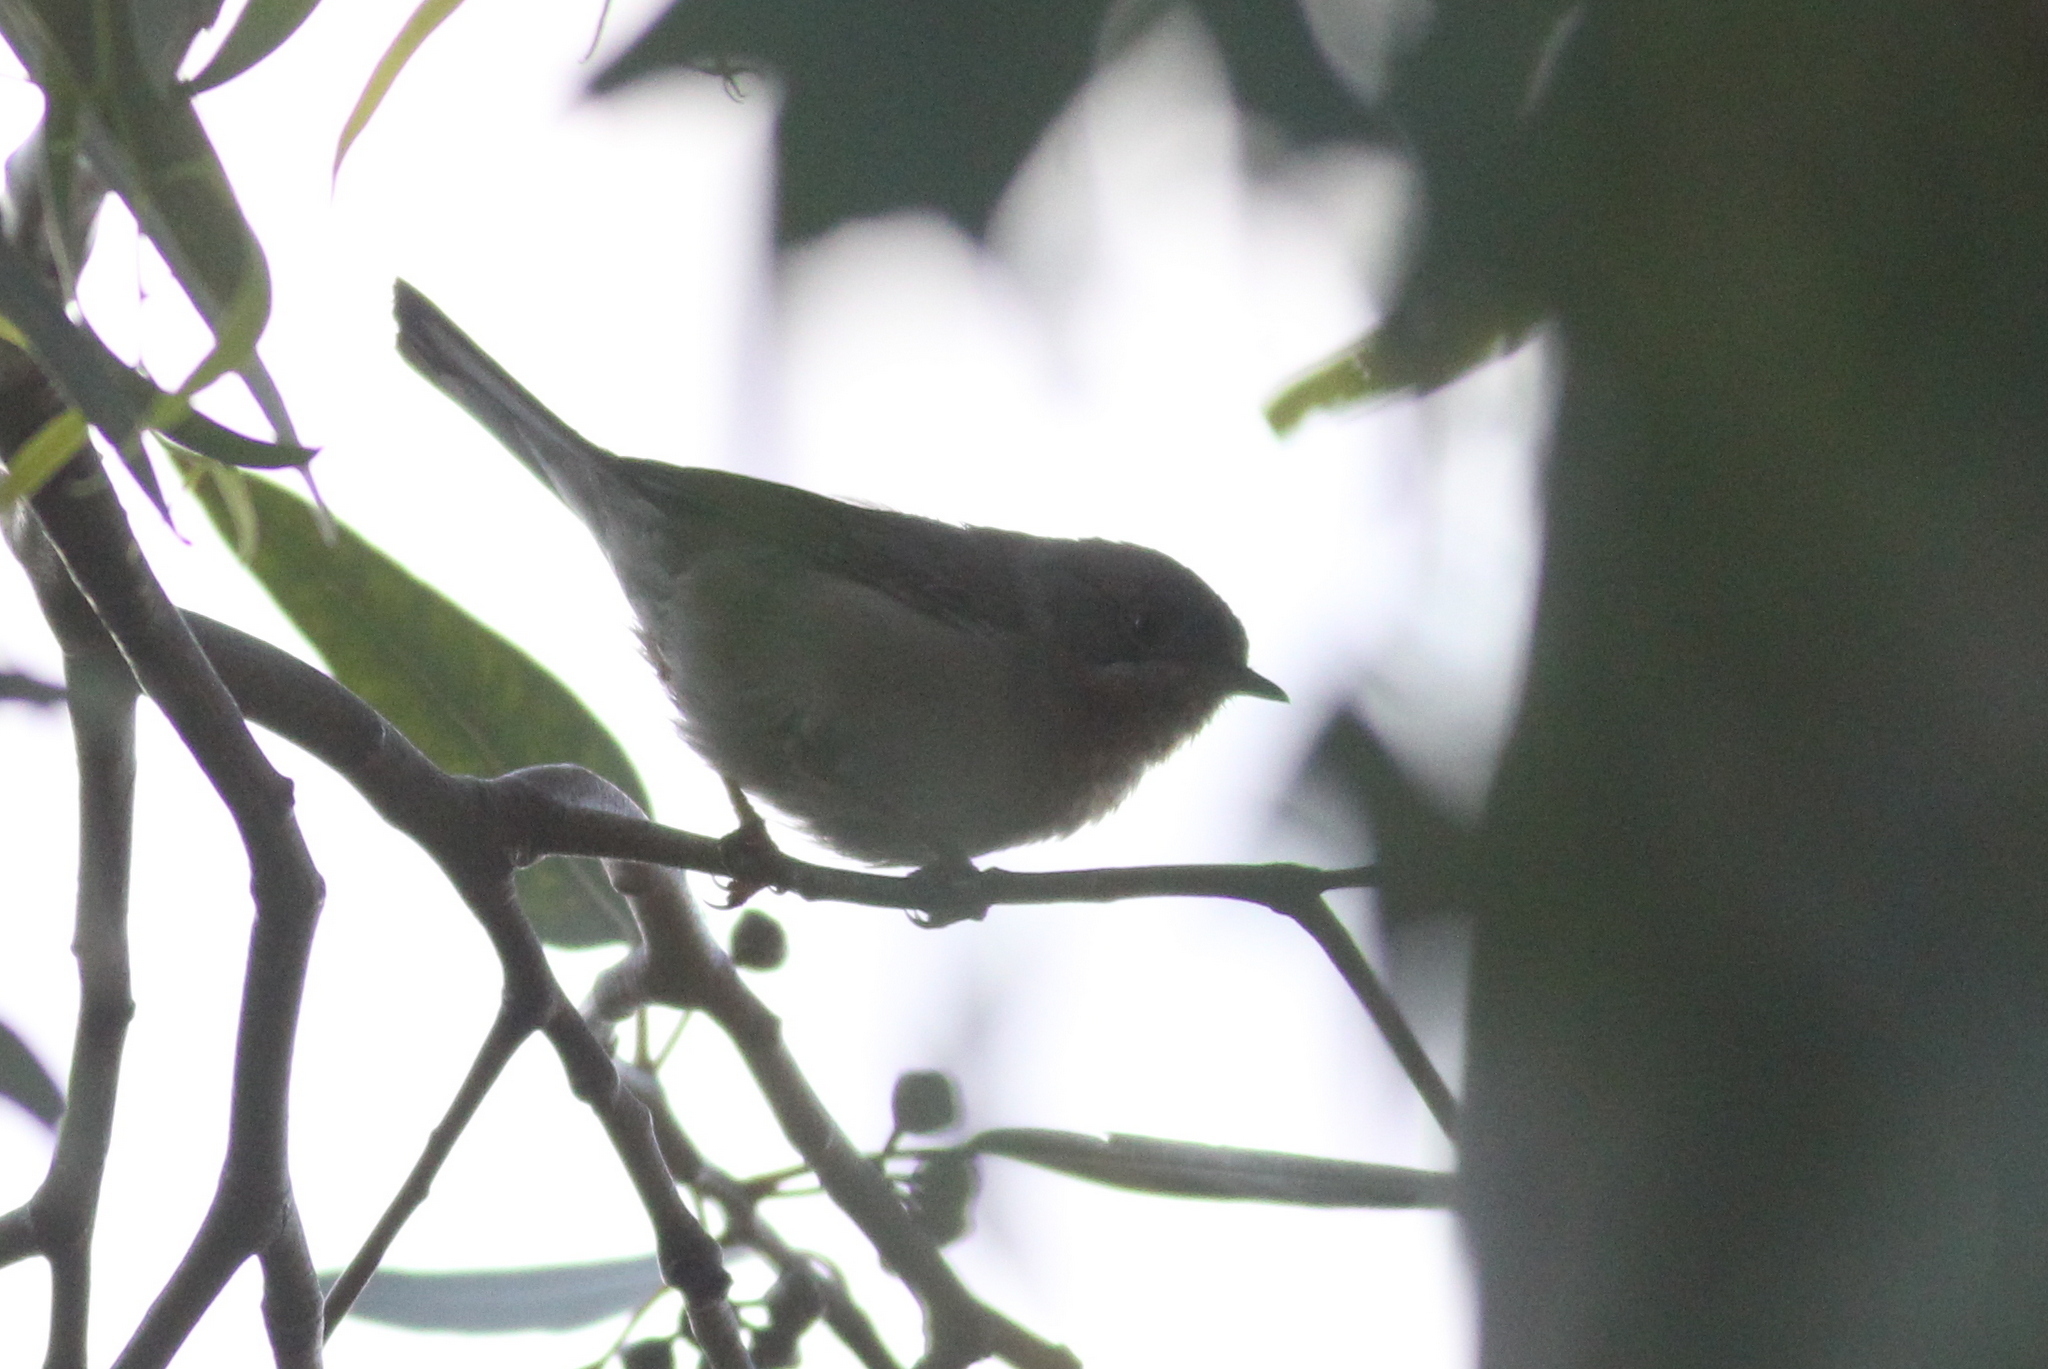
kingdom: Animalia
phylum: Chordata
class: Aves
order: Passeriformes
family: Sylviidae
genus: Curruca
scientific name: Curruca cantillans
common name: Subalpine warbler
